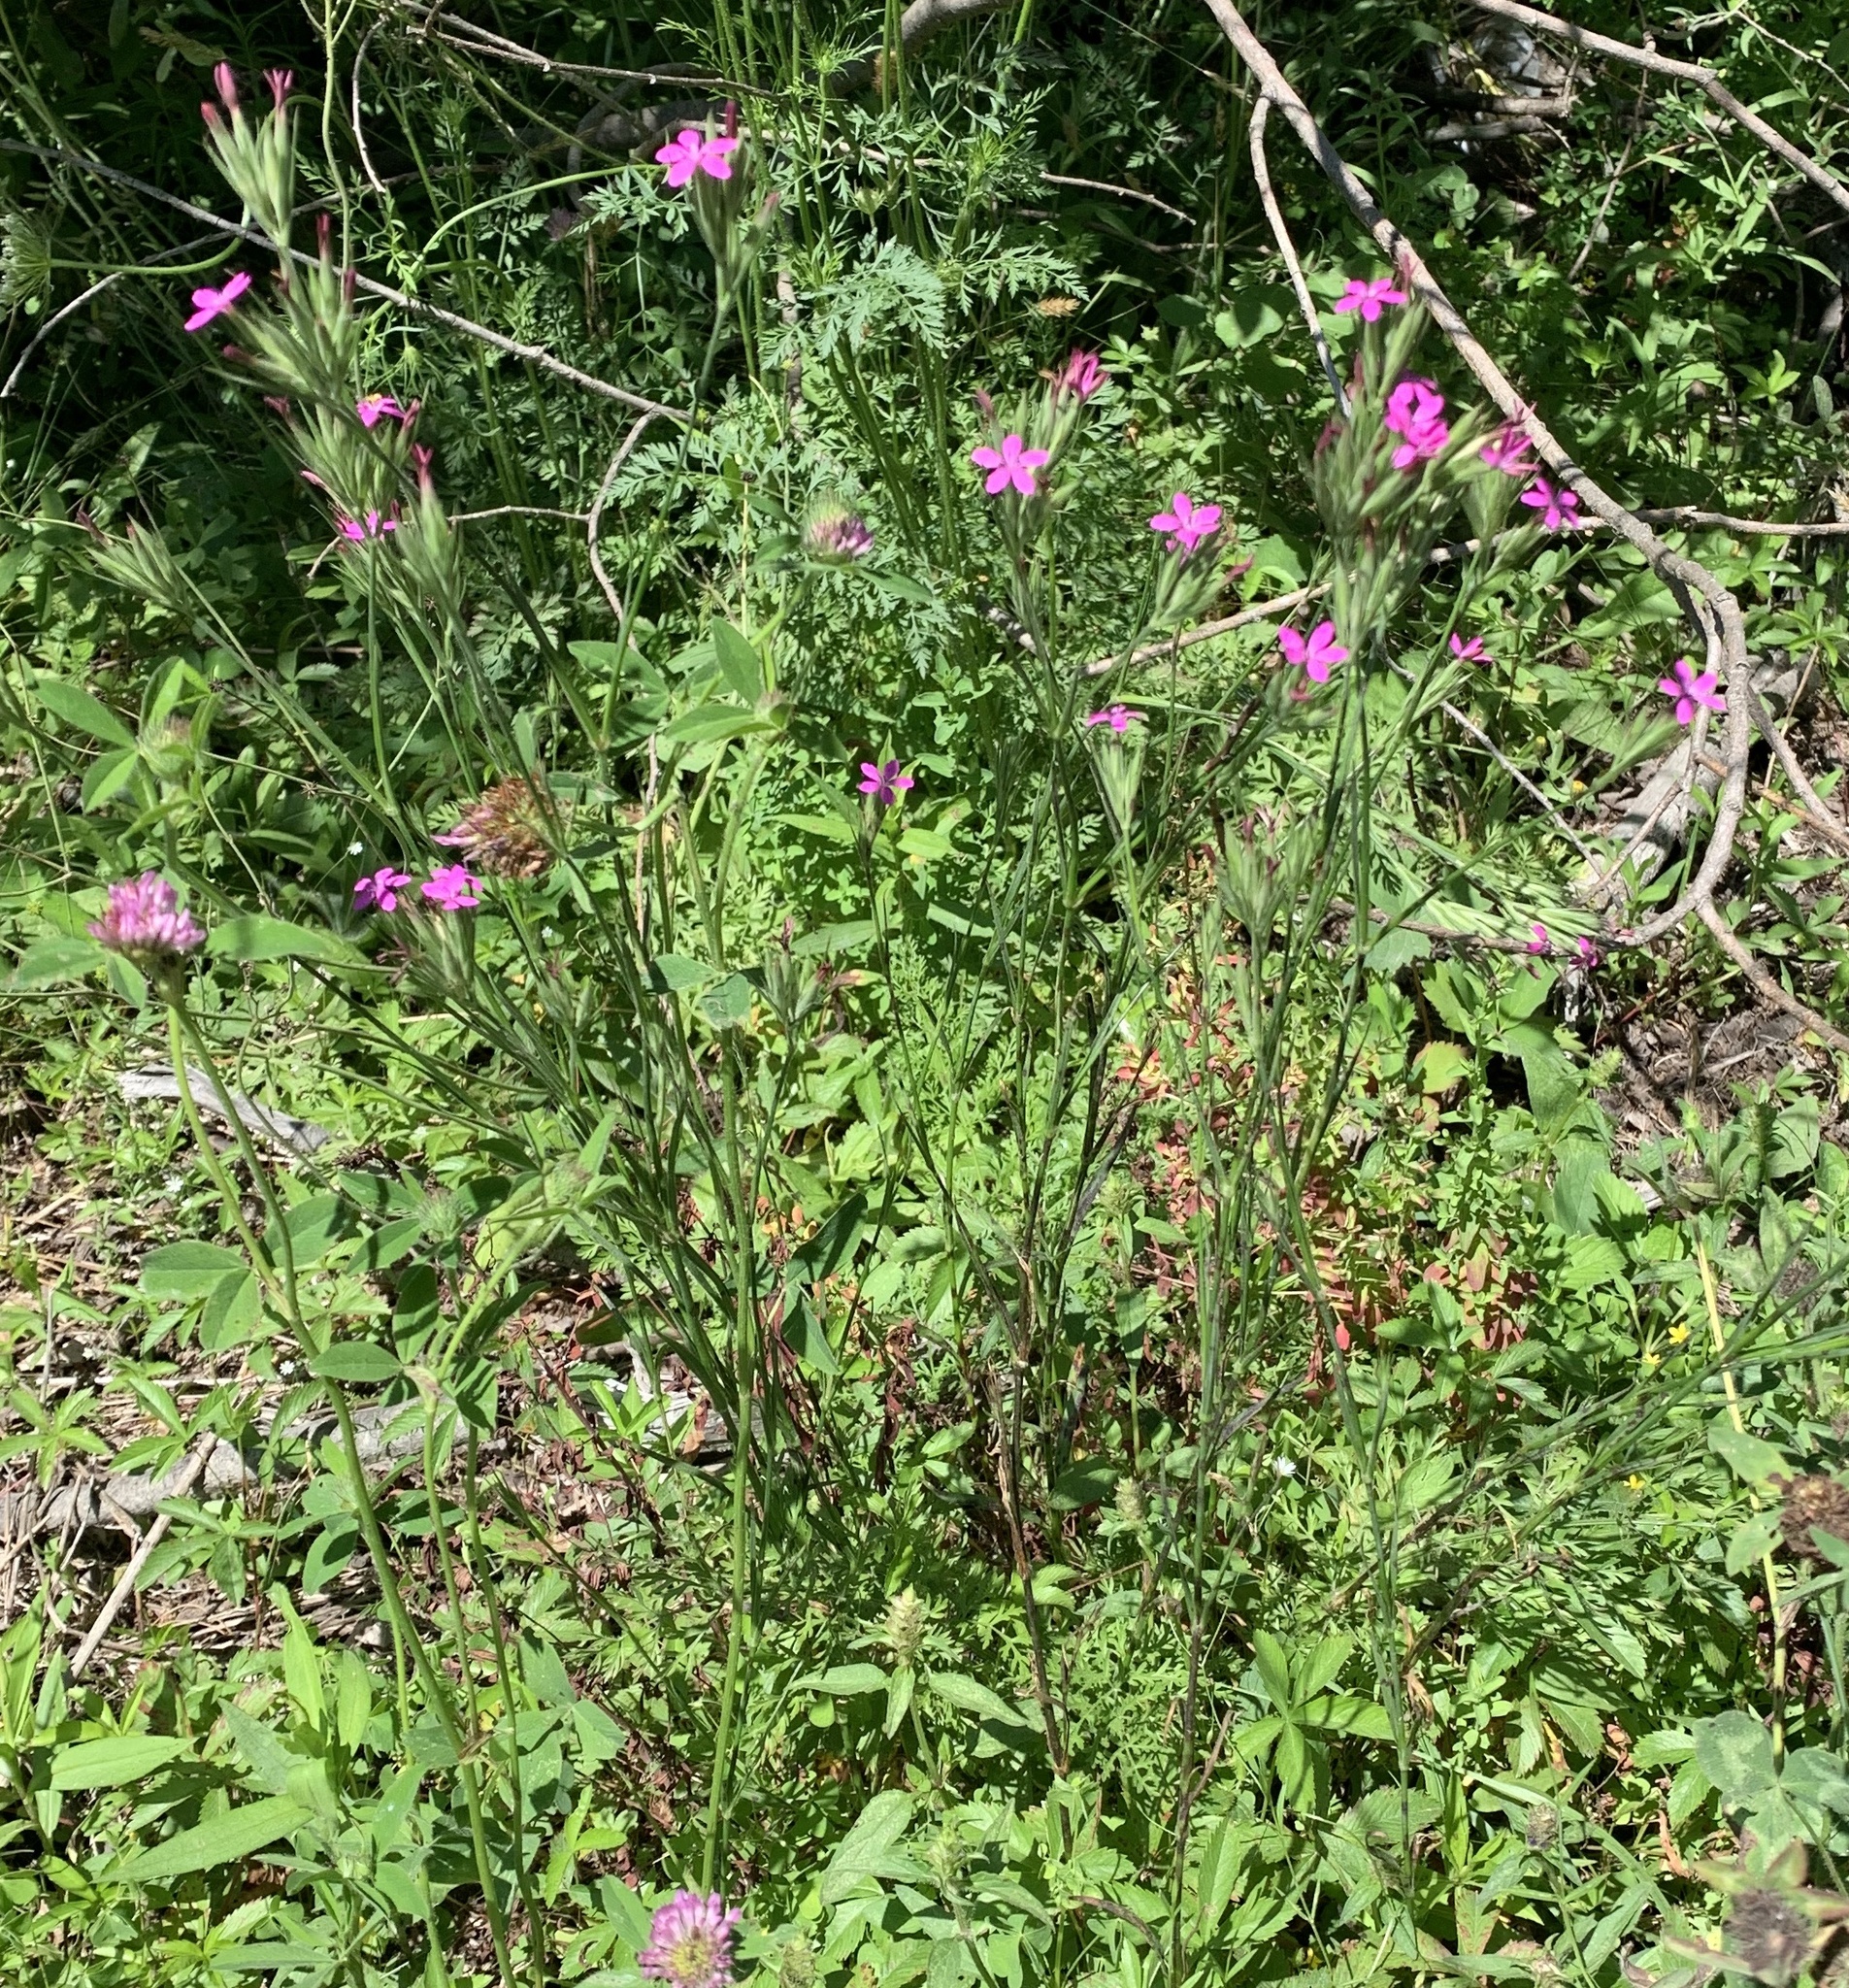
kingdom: Plantae
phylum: Tracheophyta
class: Magnoliopsida
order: Caryophyllales
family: Caryophyllaceae
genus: Dianthus
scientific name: Dianthus armeria
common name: Deptford pink
